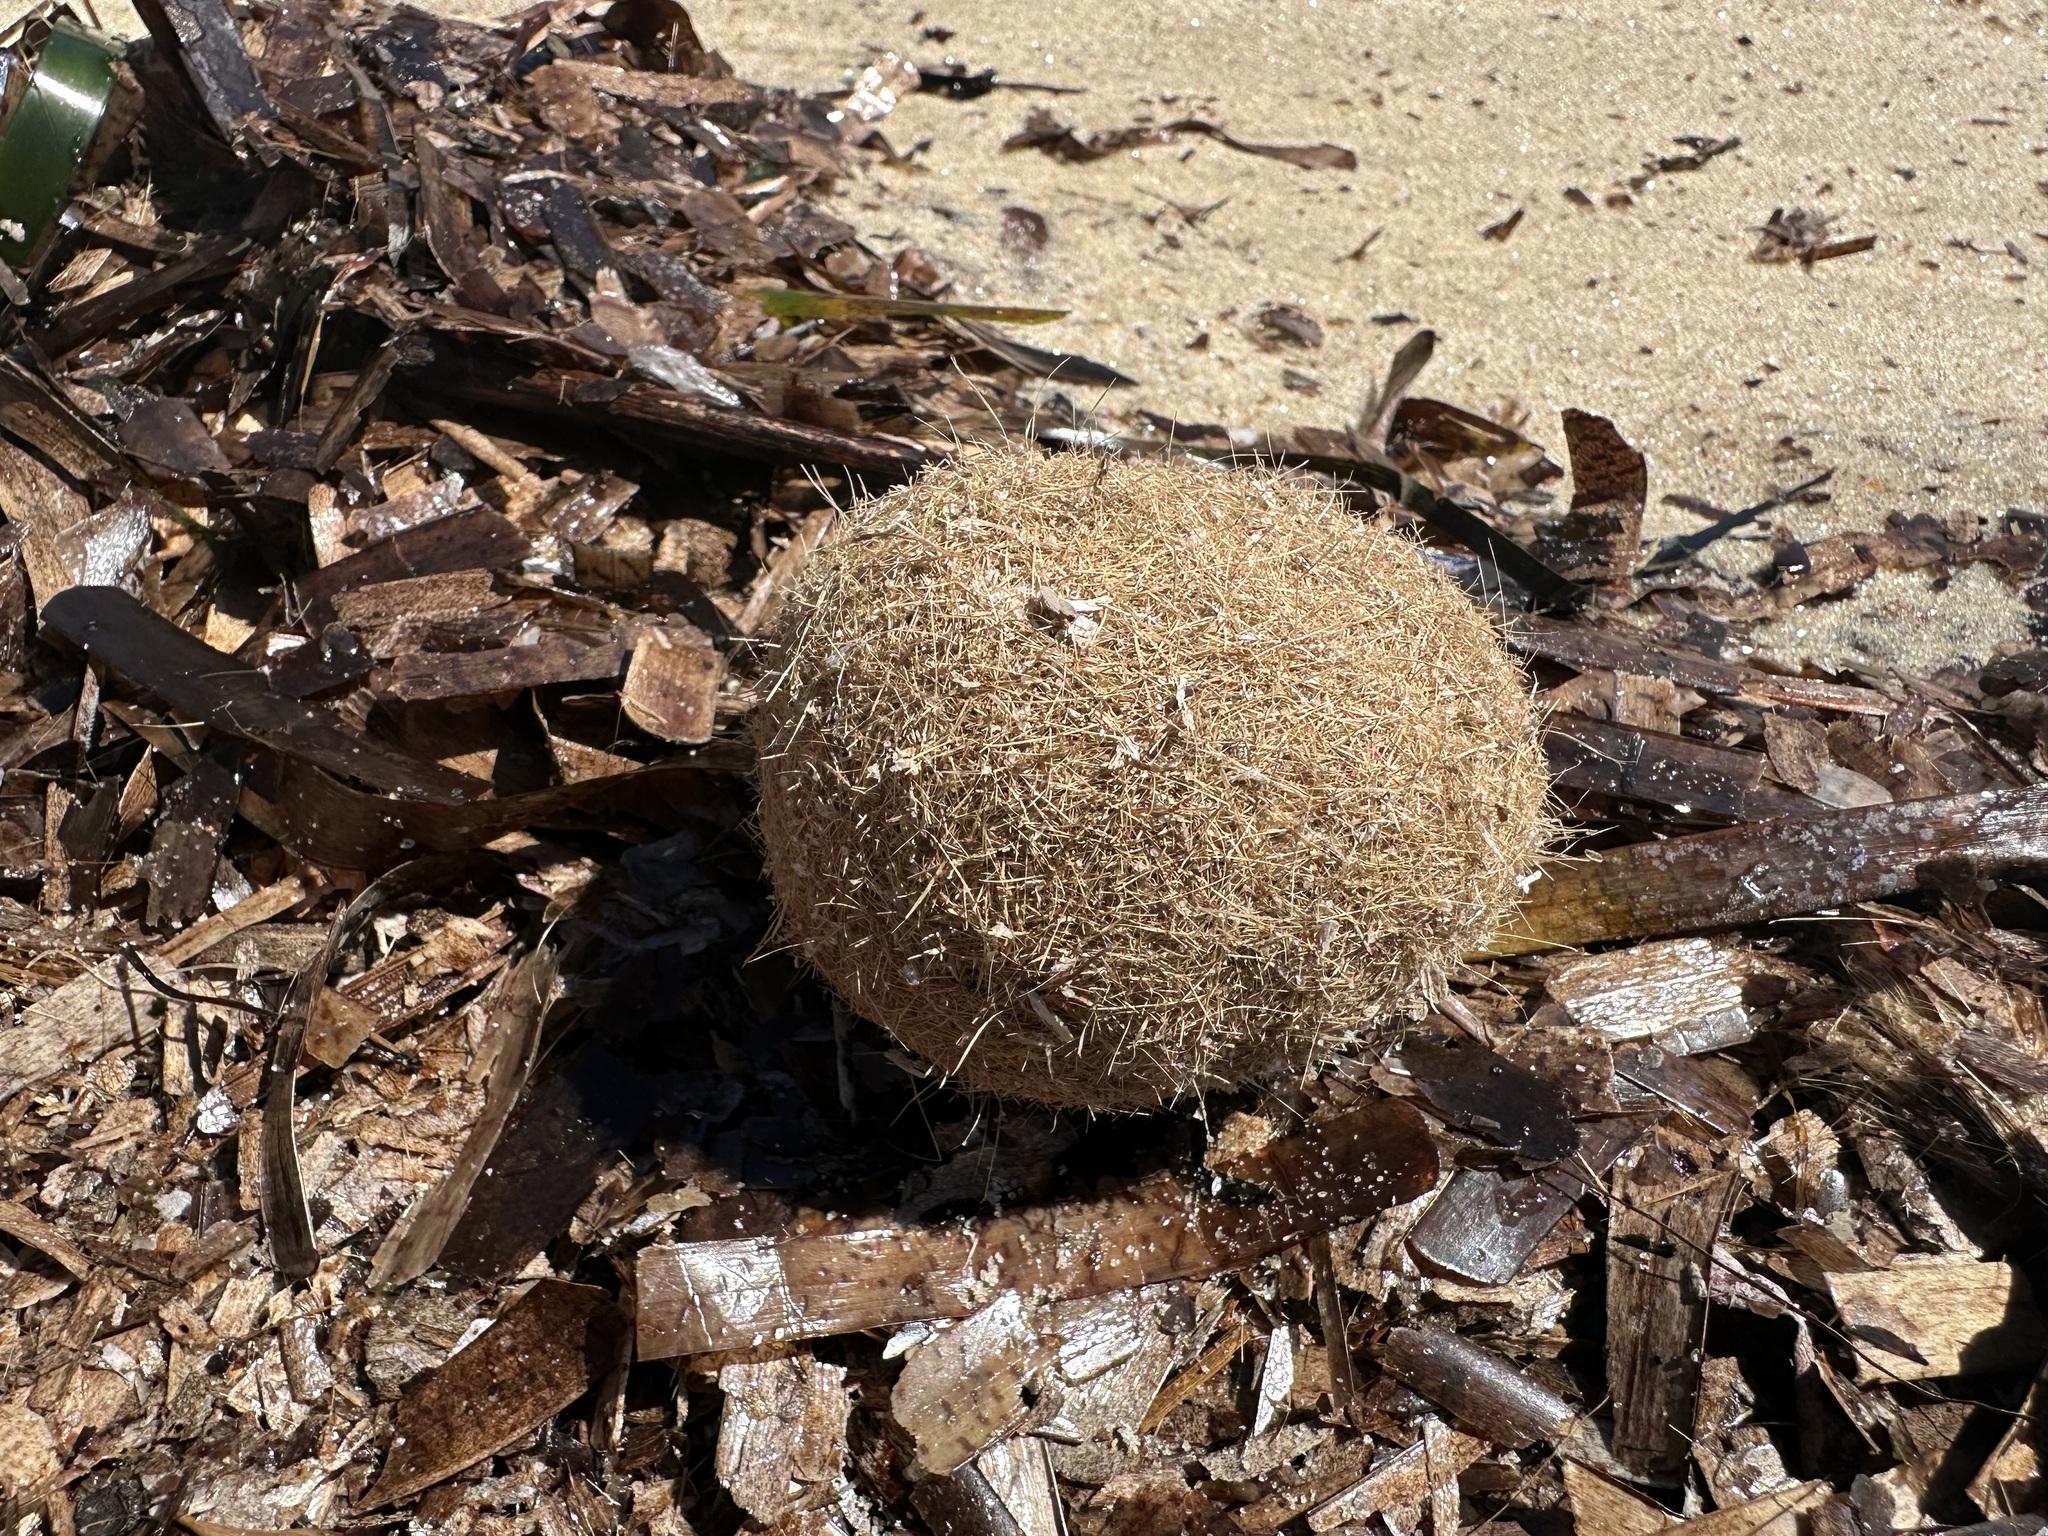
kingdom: Plantae
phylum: Tracheophyta
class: Liliopsida
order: Alismatales
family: Posidoniaceae
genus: Posidonia
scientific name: Posidonia oceanica
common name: Mediterranean tapeweed
